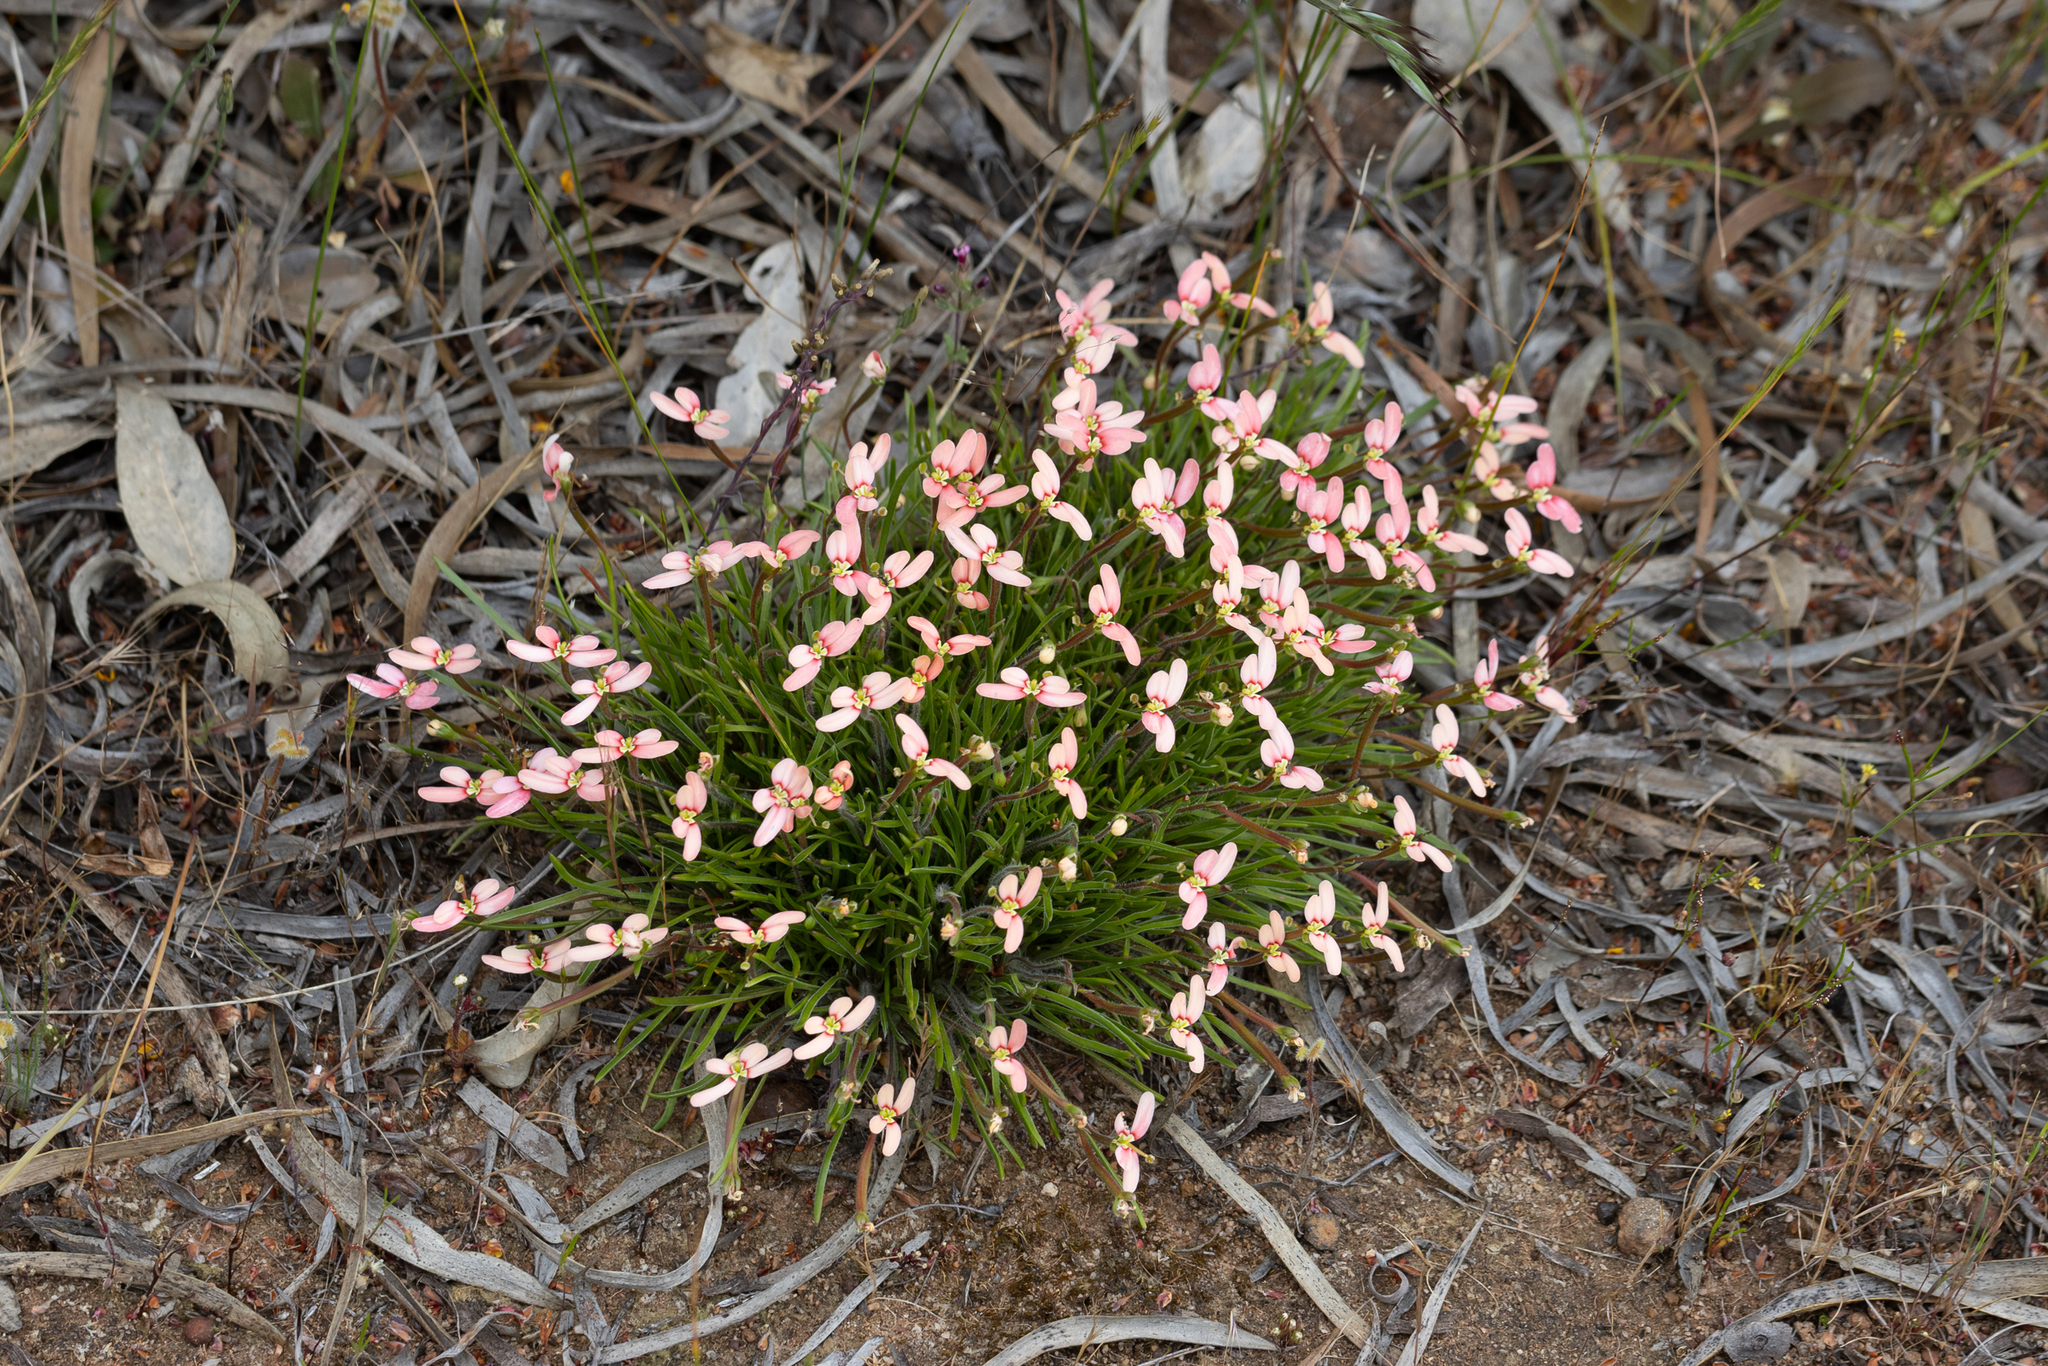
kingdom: Plantae
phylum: Tracheophyta
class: Magnoliopsida
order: Asterales
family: Stylidiaceae
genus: Stylidium
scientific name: Stylidium uniflorum
